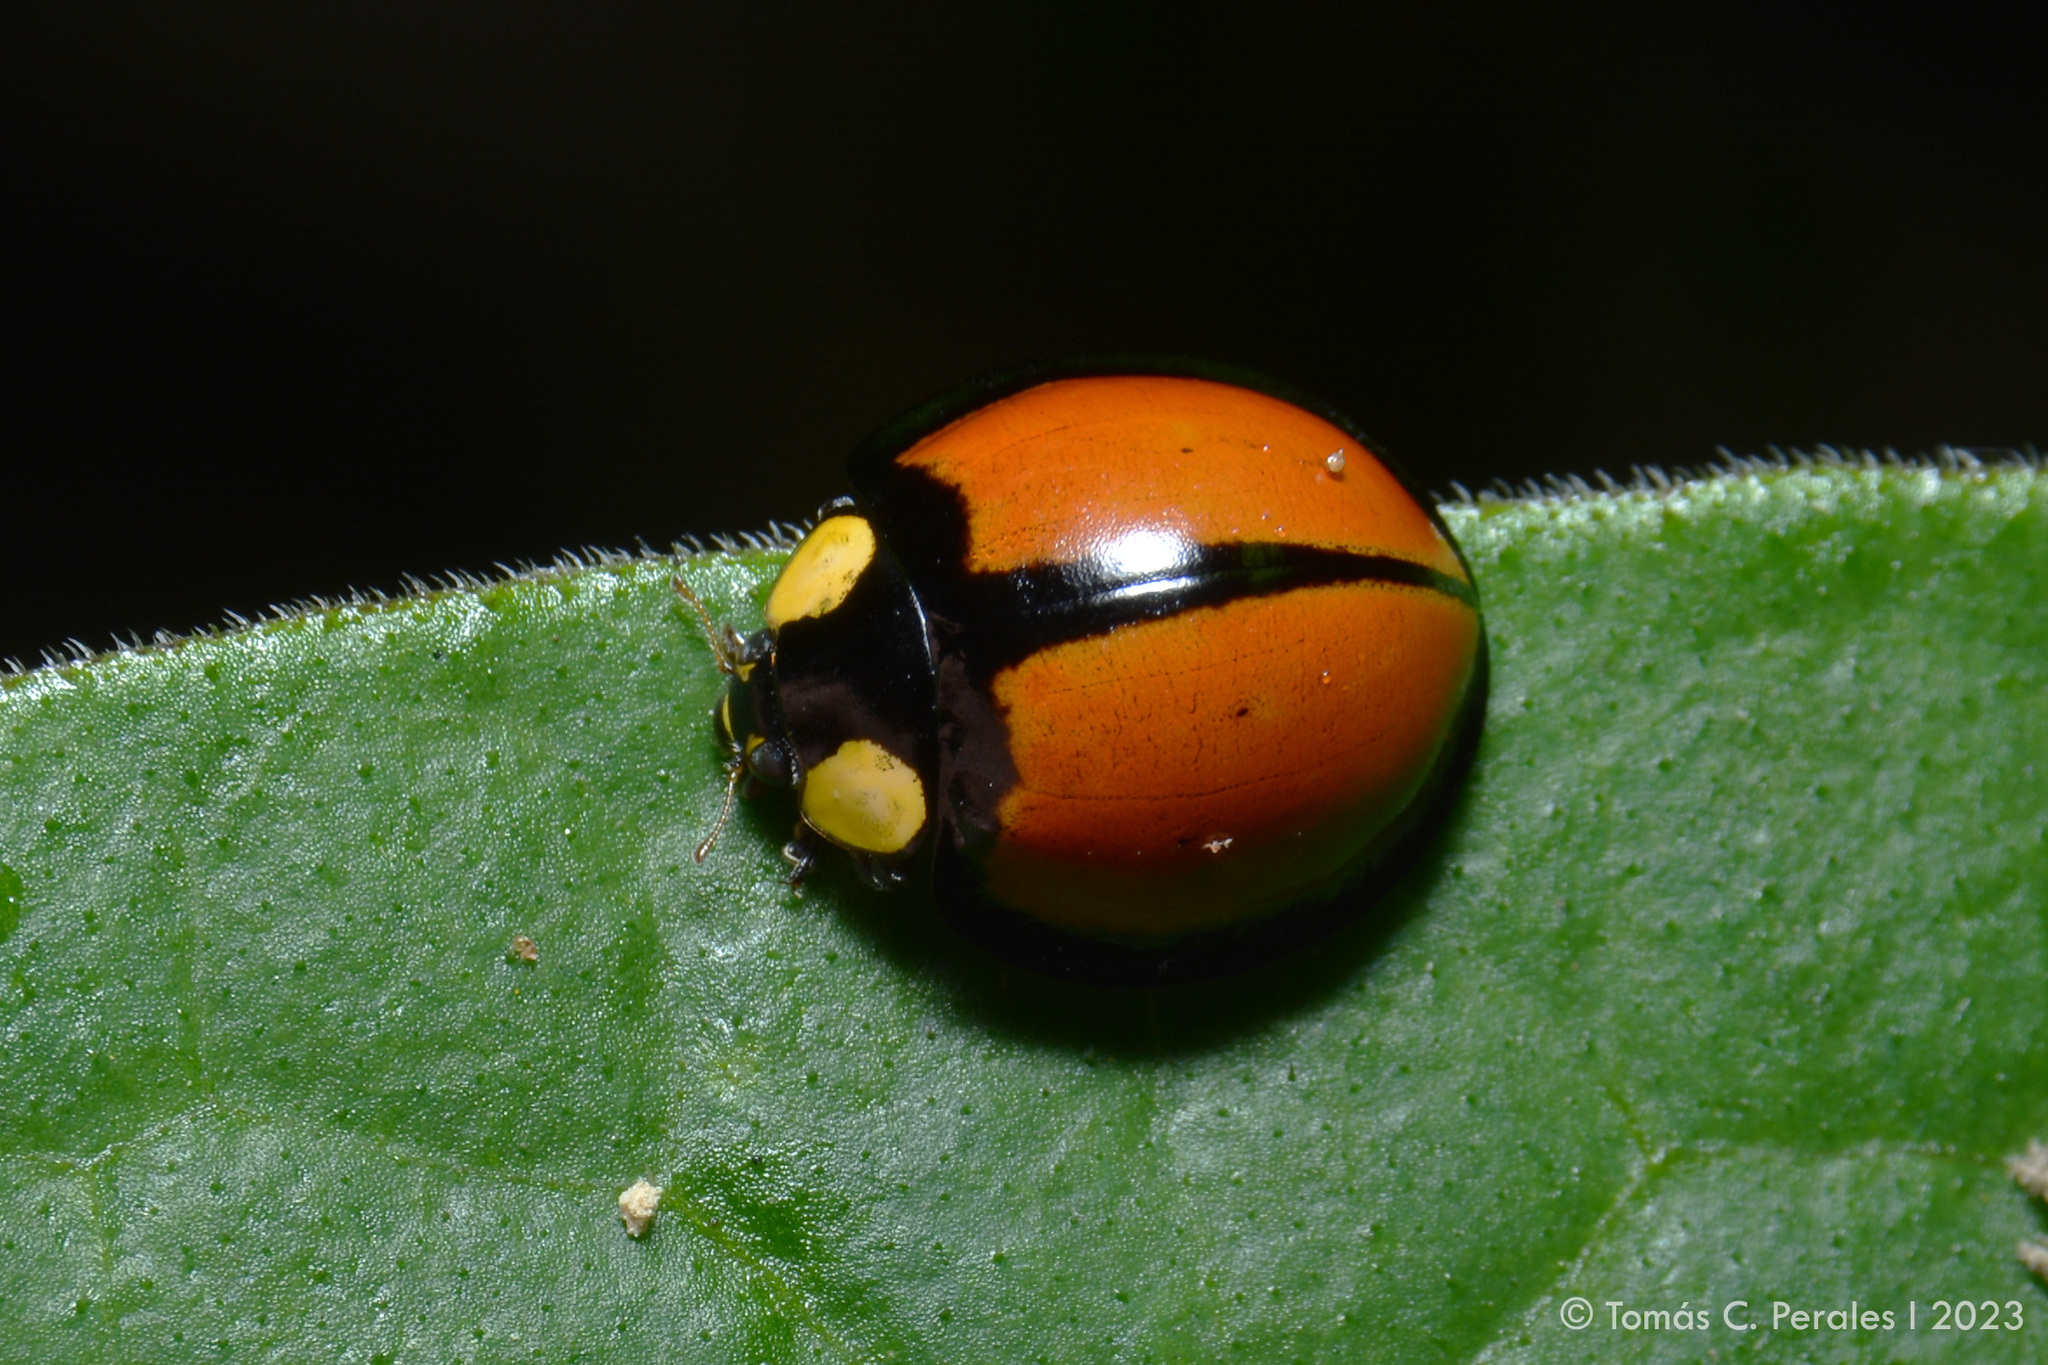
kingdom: Animalia
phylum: Arthropoda
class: Insecta
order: Coleoptera
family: Coccinellidae
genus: Mononeda
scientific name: Mononeda
